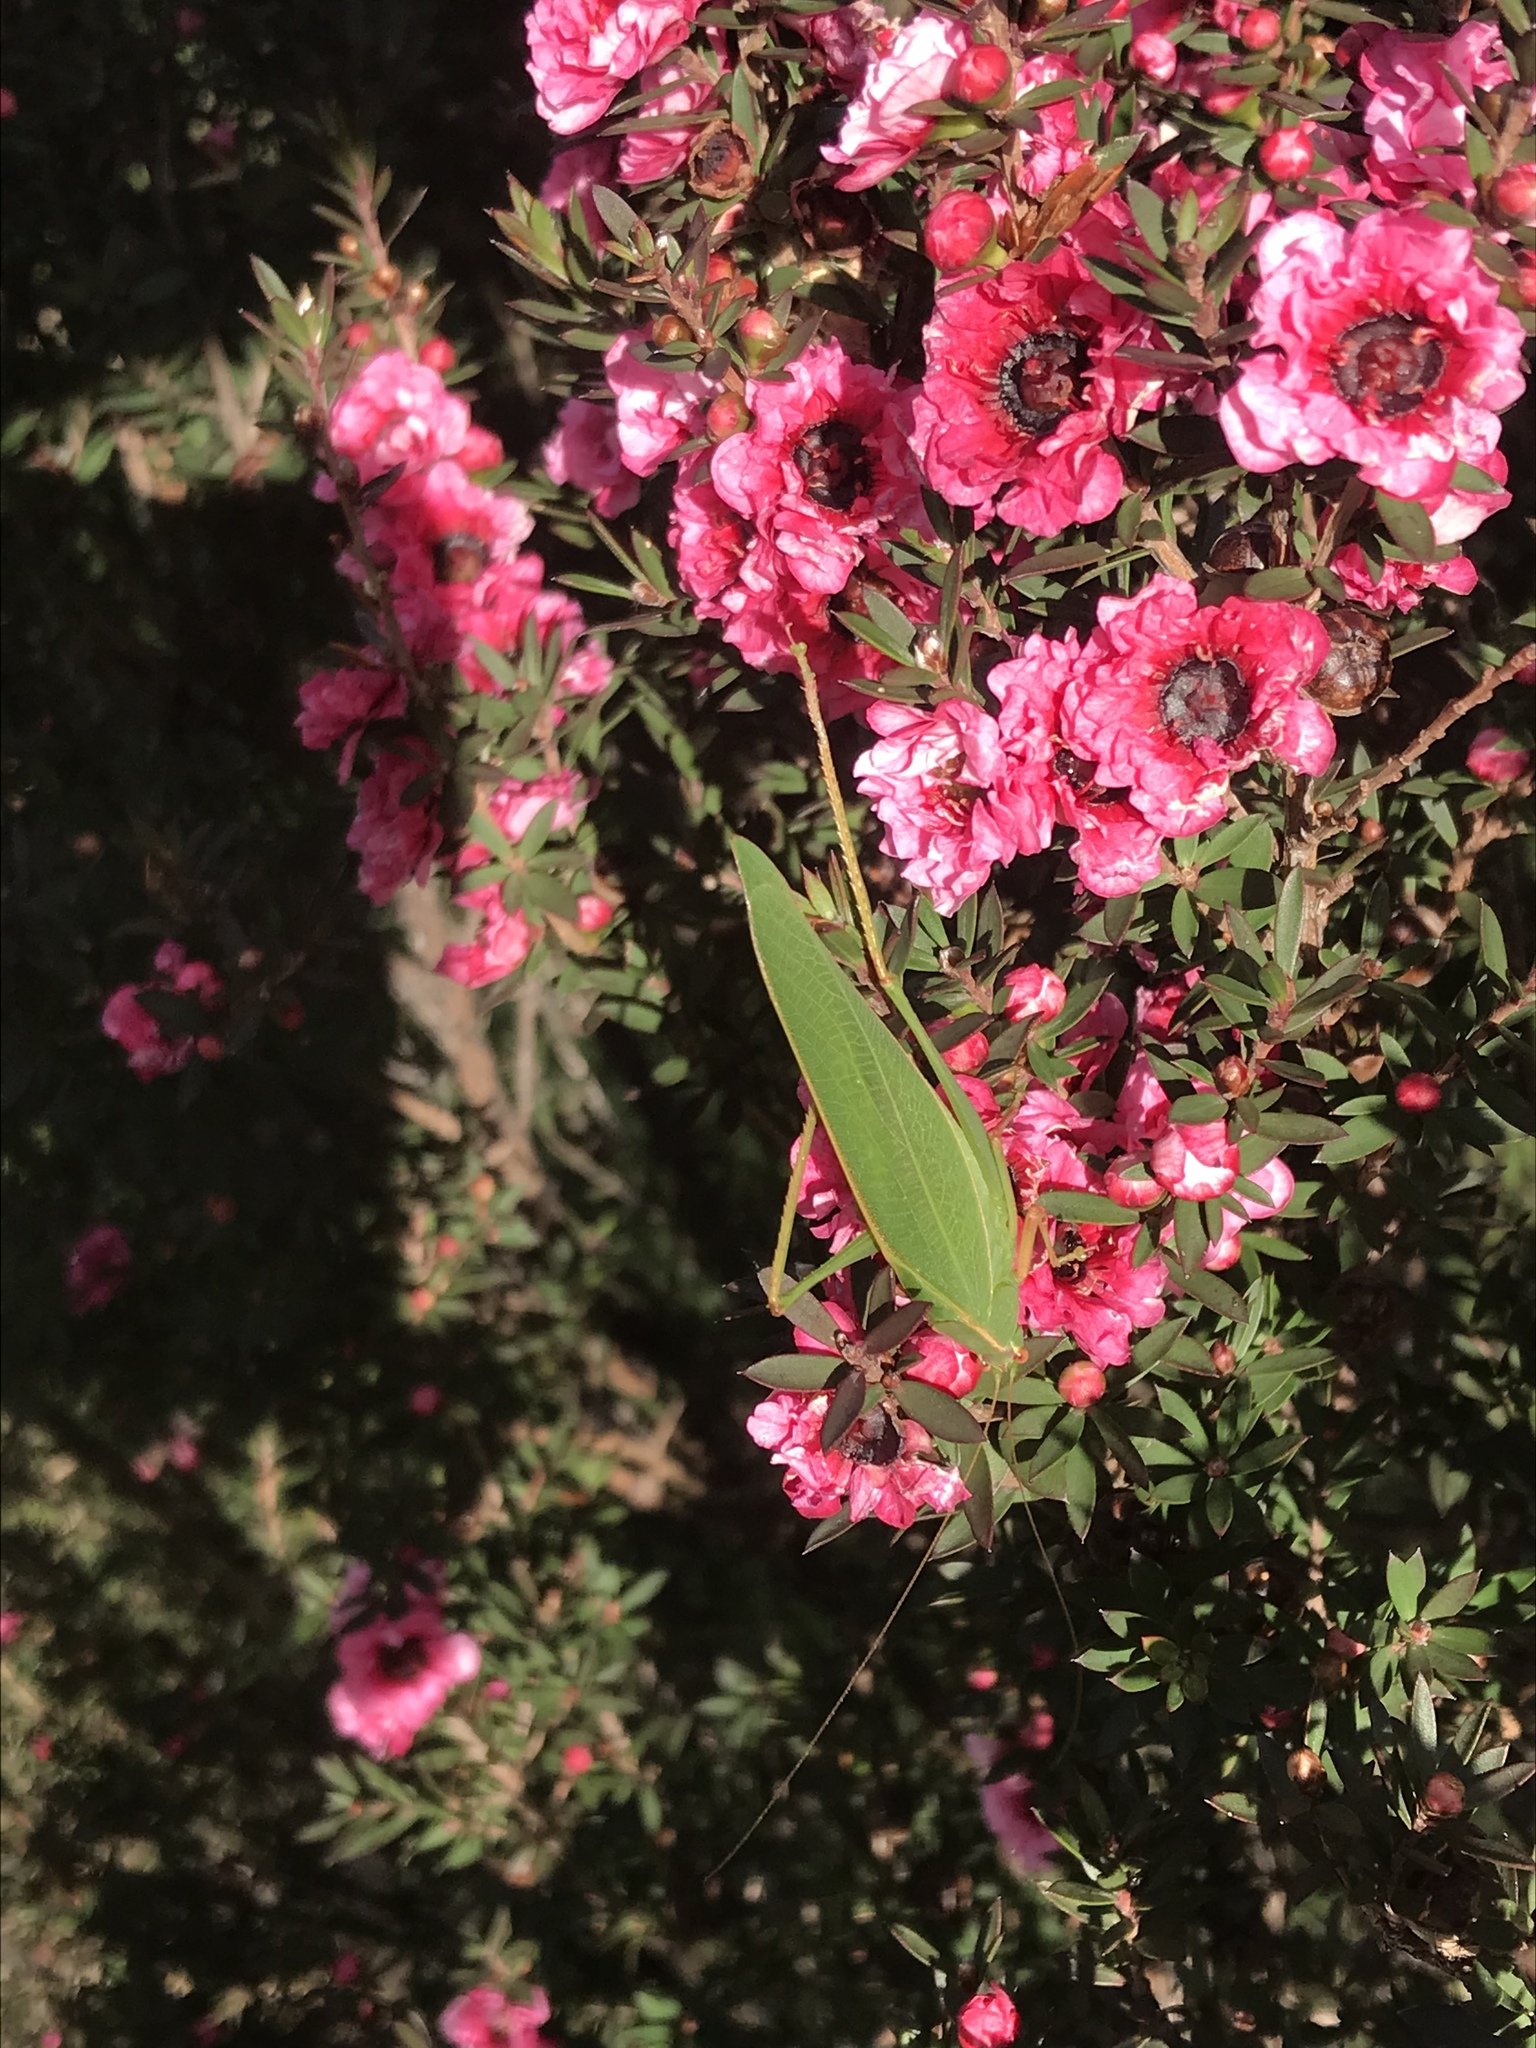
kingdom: Animalia
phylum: Arthropoda
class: Insecta
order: Orthoptera
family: Tettigoniidae
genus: Caedicia
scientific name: Caedicia simplex
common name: Common garden katydid
